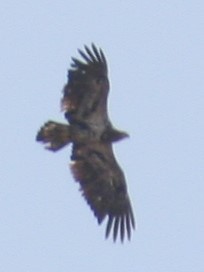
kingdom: Animalia
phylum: Chordata
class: Aves
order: Accipitriformes
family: Accipitridae
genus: Haliaeetus
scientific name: Haliaeetus leucocephalus
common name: Bald eagle
